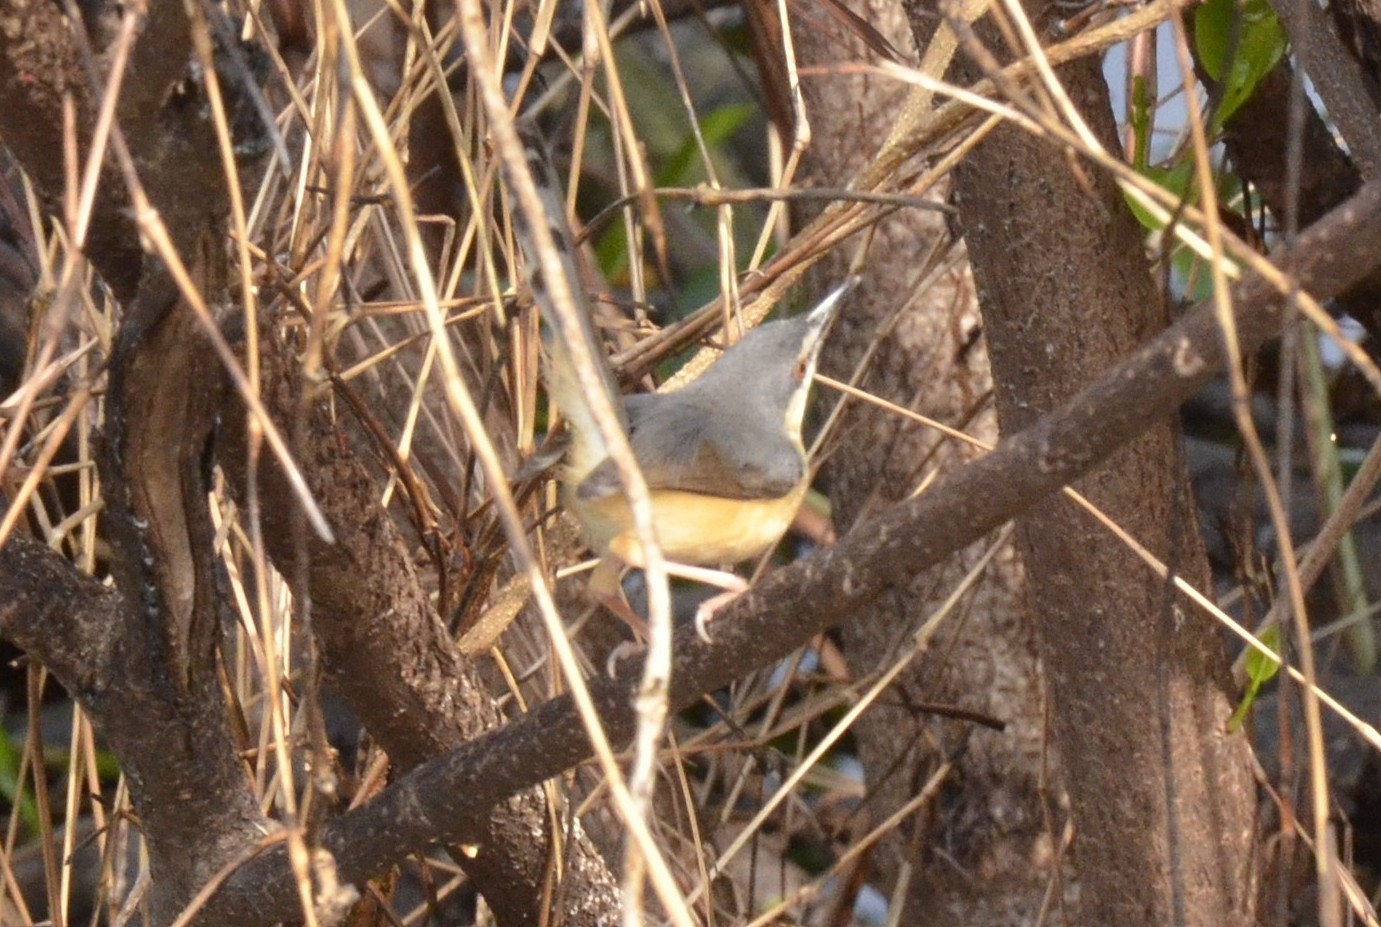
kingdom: Animalia
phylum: Chordata
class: Aves
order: Passeriformes
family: Cisticolidae
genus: Prinia
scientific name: Prinia socialis
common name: Ashy prinia
